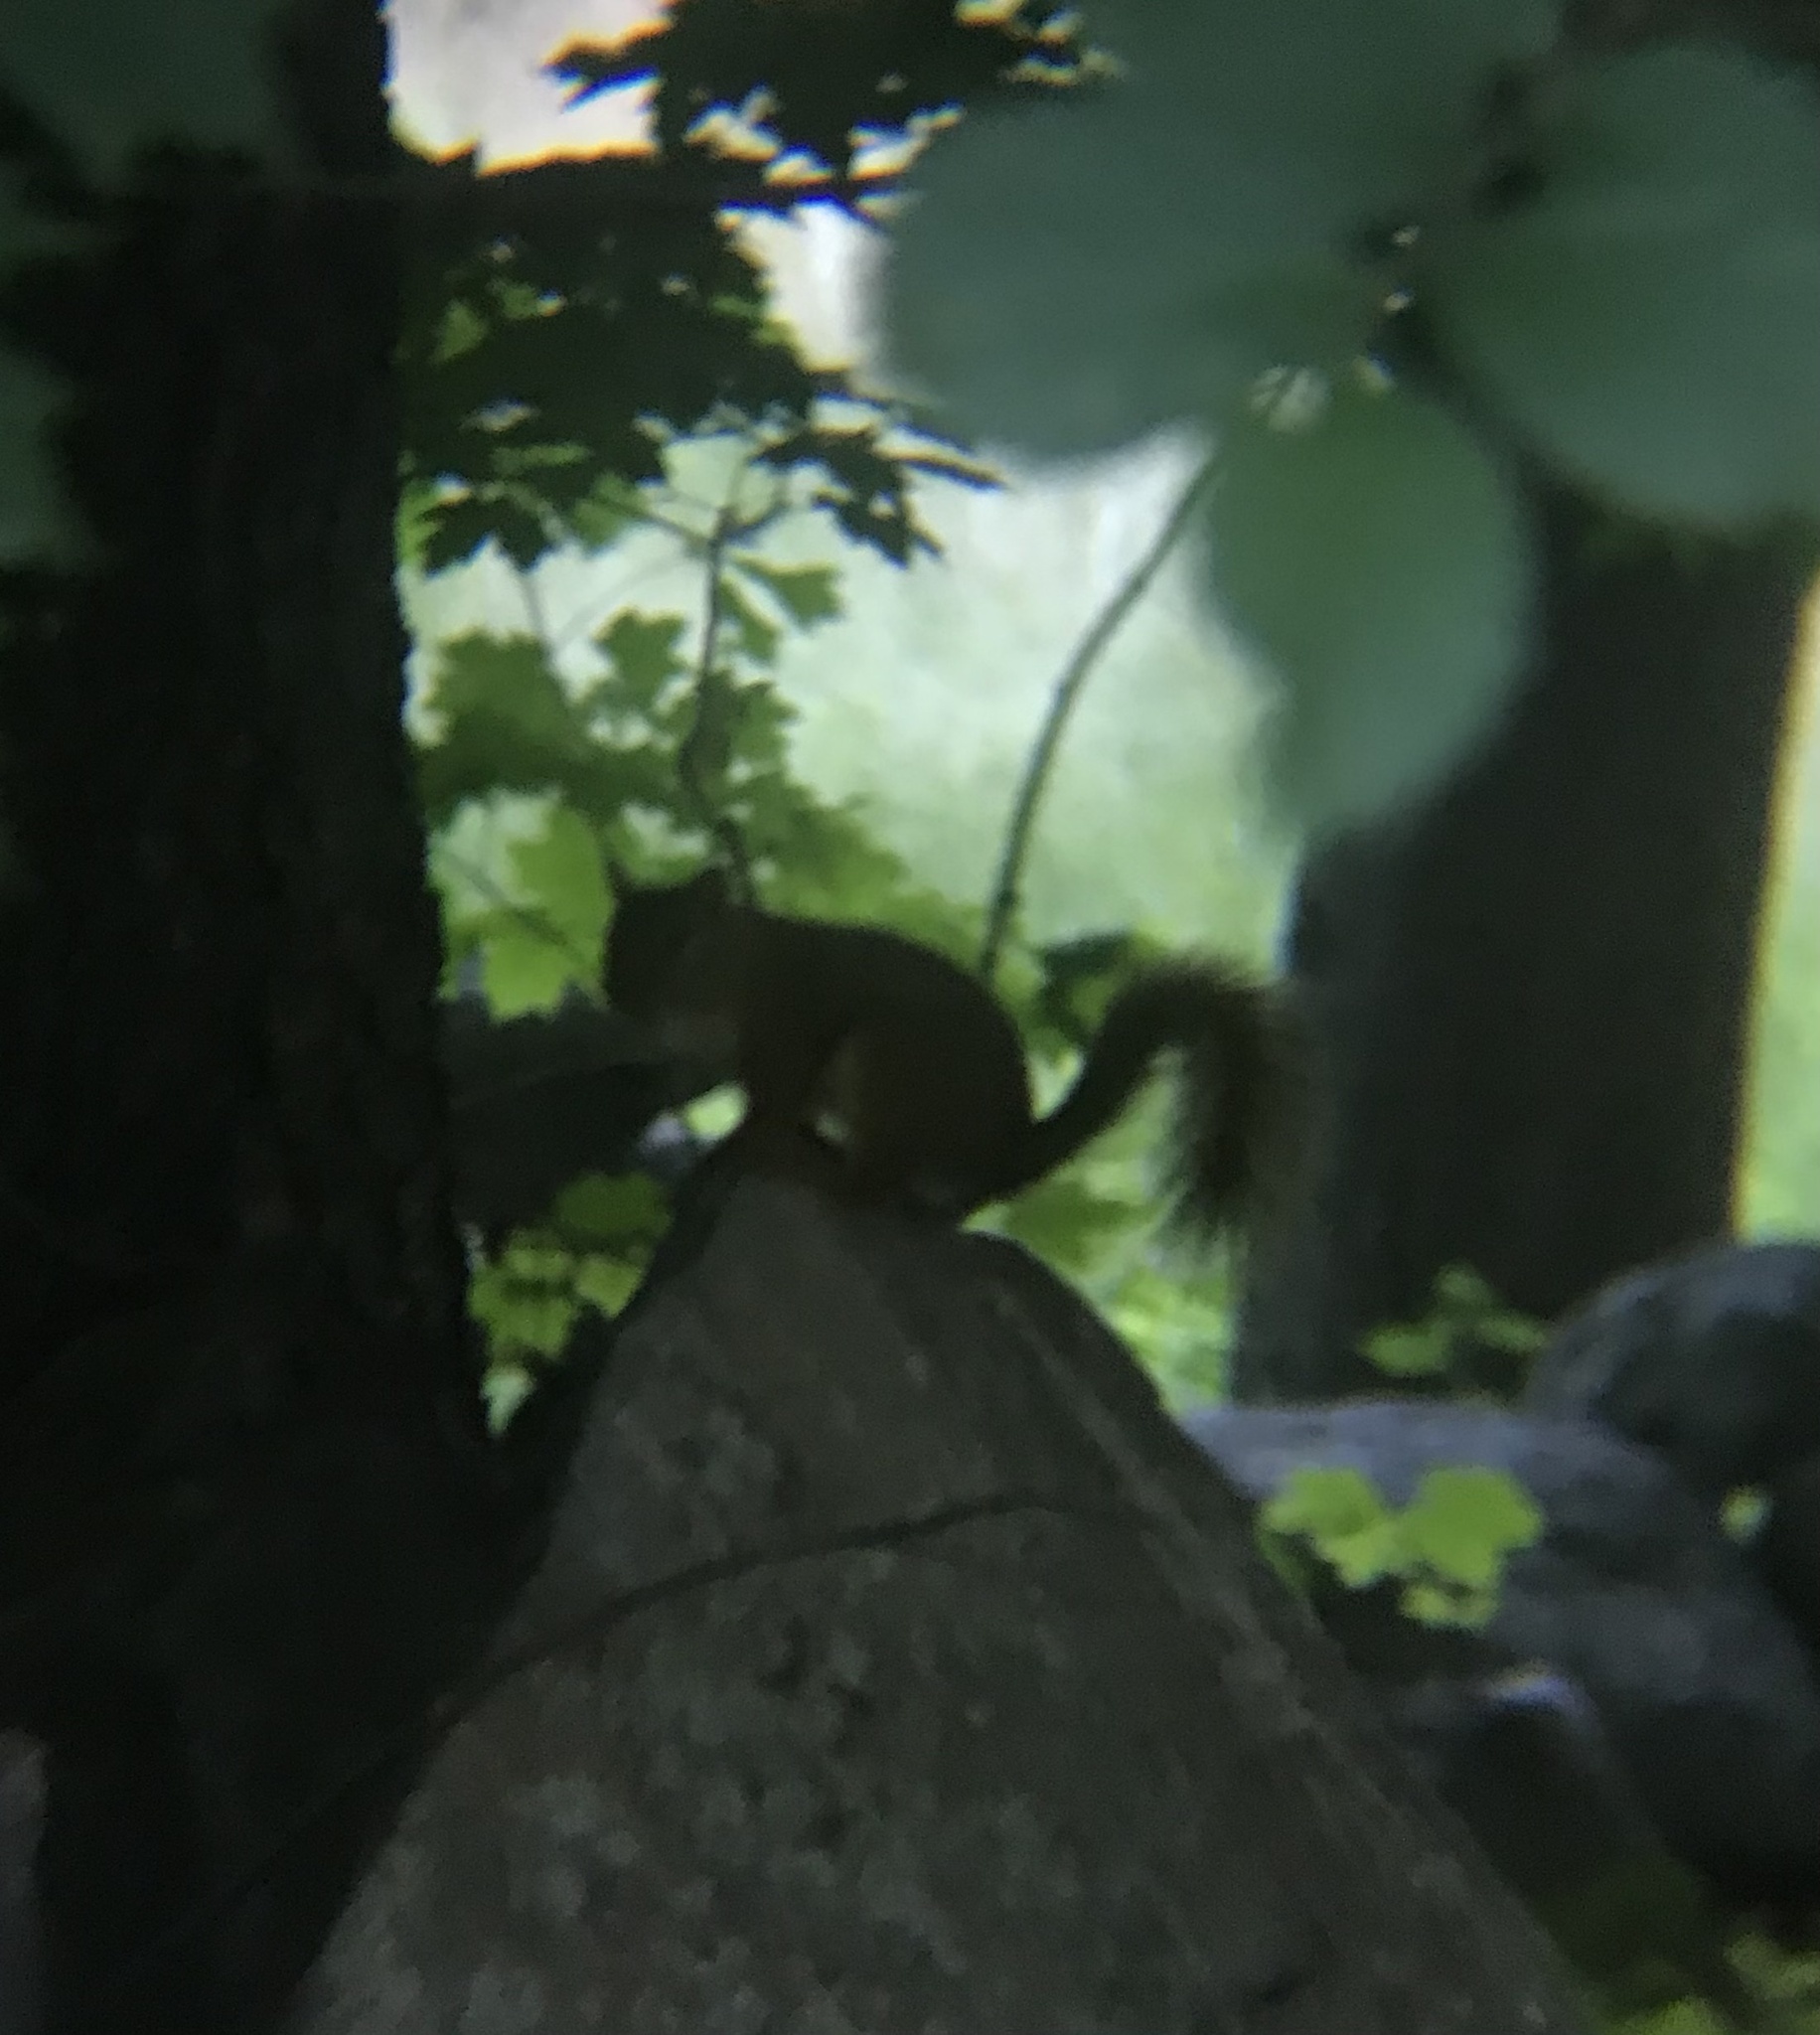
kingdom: Animalia
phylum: Chordata
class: Mammalia
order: Rodentia
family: Sciuridae
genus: Tamiasciurus
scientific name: Tamiasciurus hudsonicus
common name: Red squirrel
